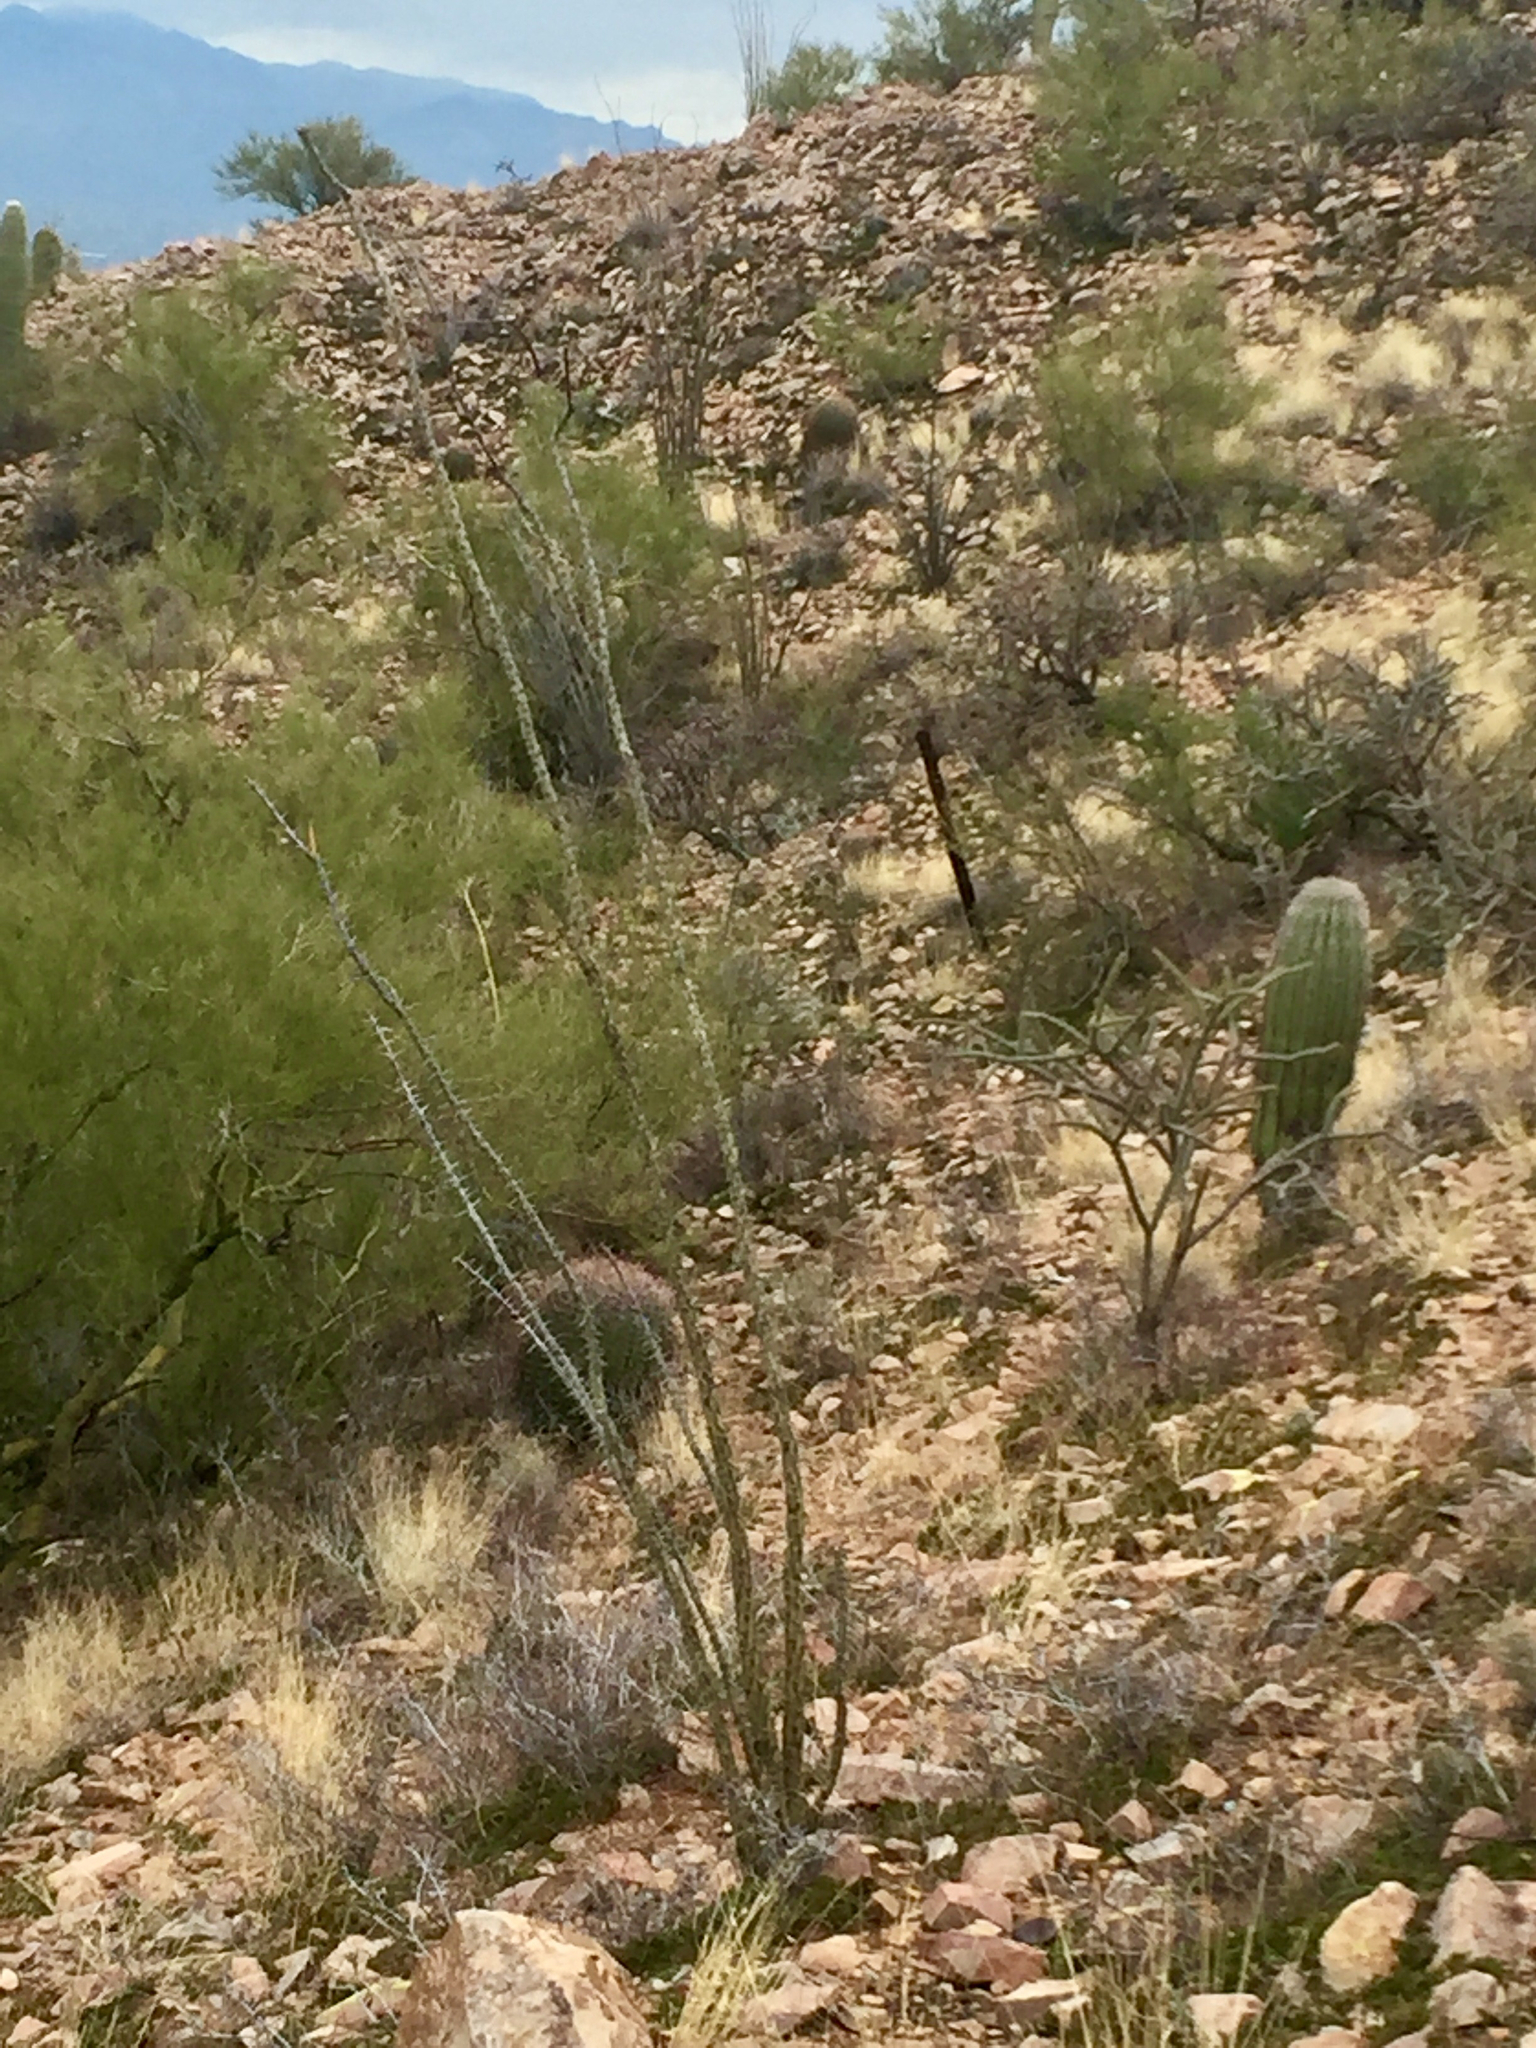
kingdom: Plantae
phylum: Tracheophyta
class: Magnoliopsida
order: Ericales
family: Fouquieriaceae
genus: Fouquieria
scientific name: Fouquieria splendens
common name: Vine-cactus
